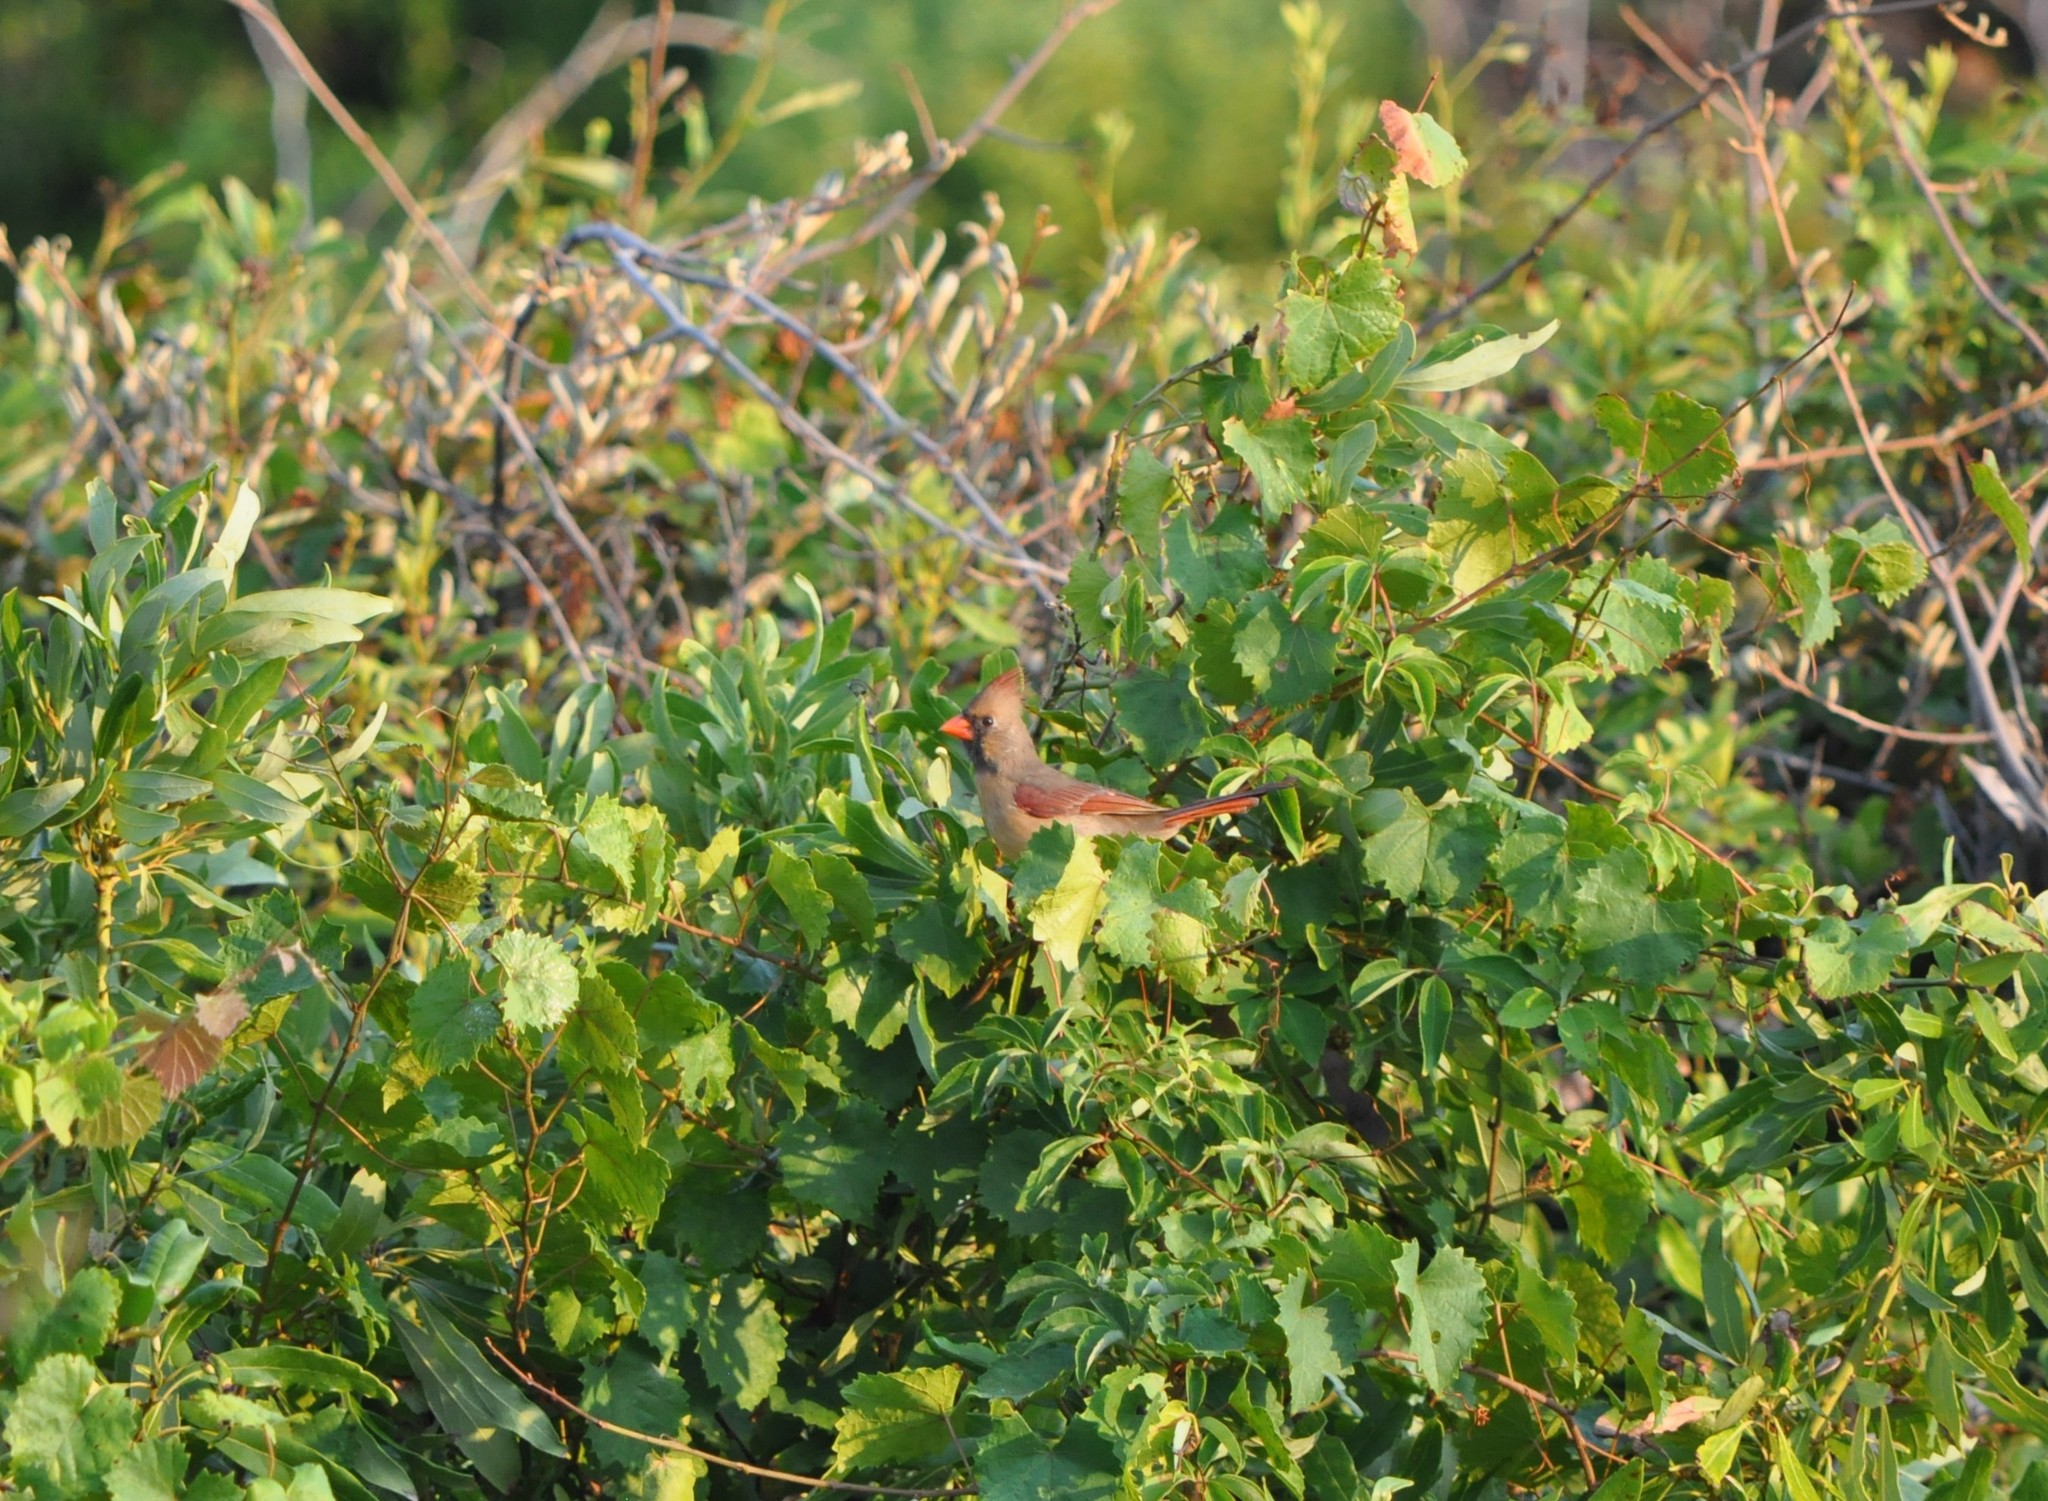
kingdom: Animalia
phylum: Chordata
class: Aves
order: Passeriformes
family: Cardinalidae
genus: Cardinalis
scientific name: Cardinalis cardinalis
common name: Northern cardinal
